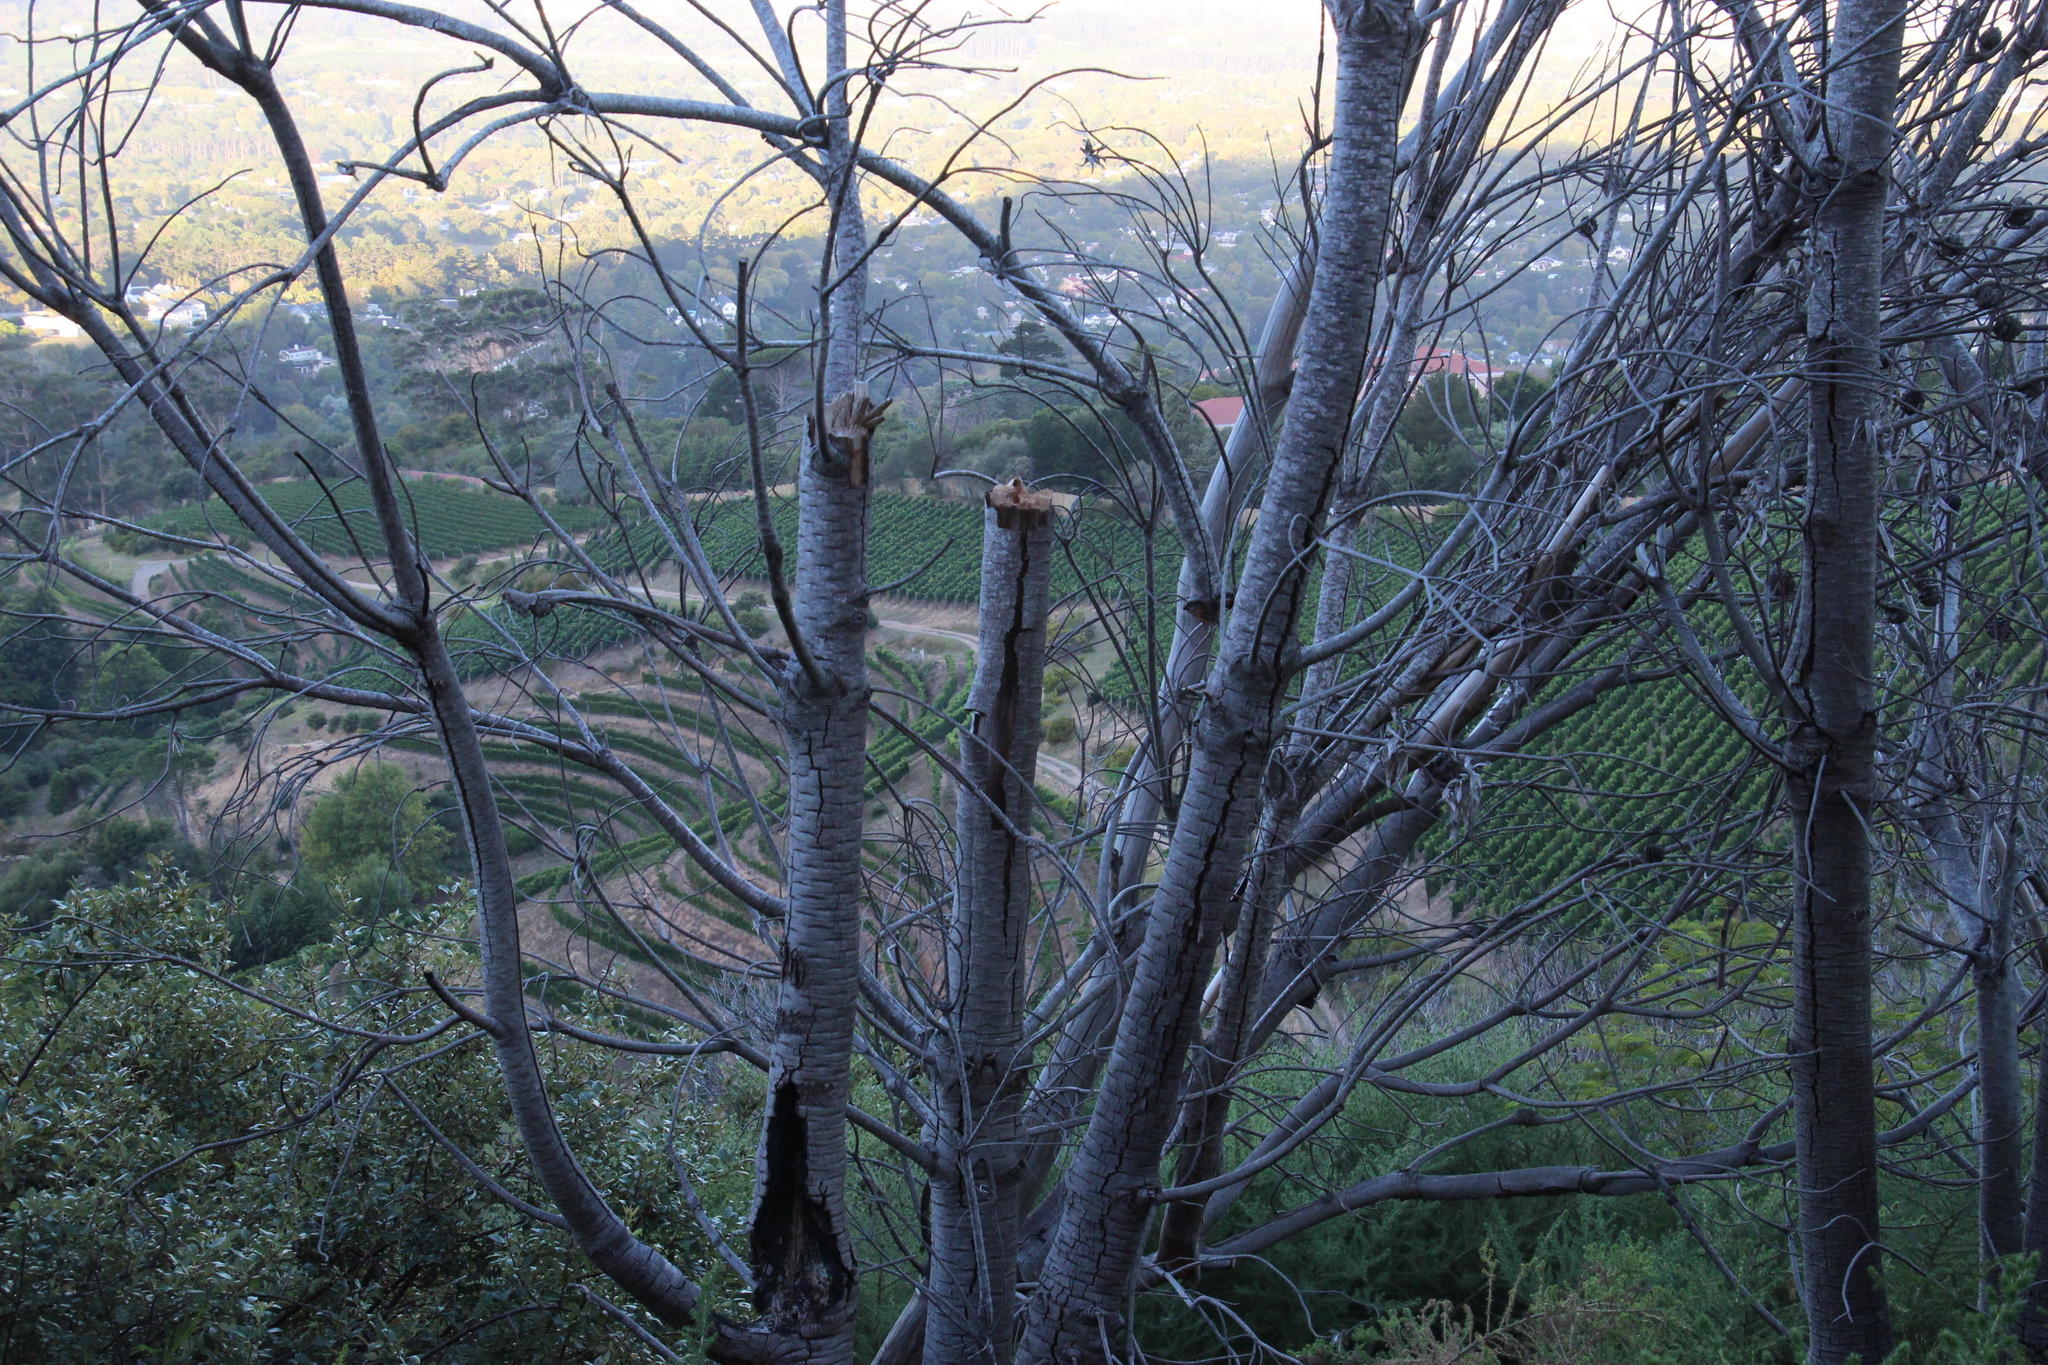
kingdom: Fungi
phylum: Ascomycota
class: Sordariomycetes
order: Xylariales
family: Hypoxylaceae
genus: Daldinia
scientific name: Daldinia concentrica
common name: Cramp balls
